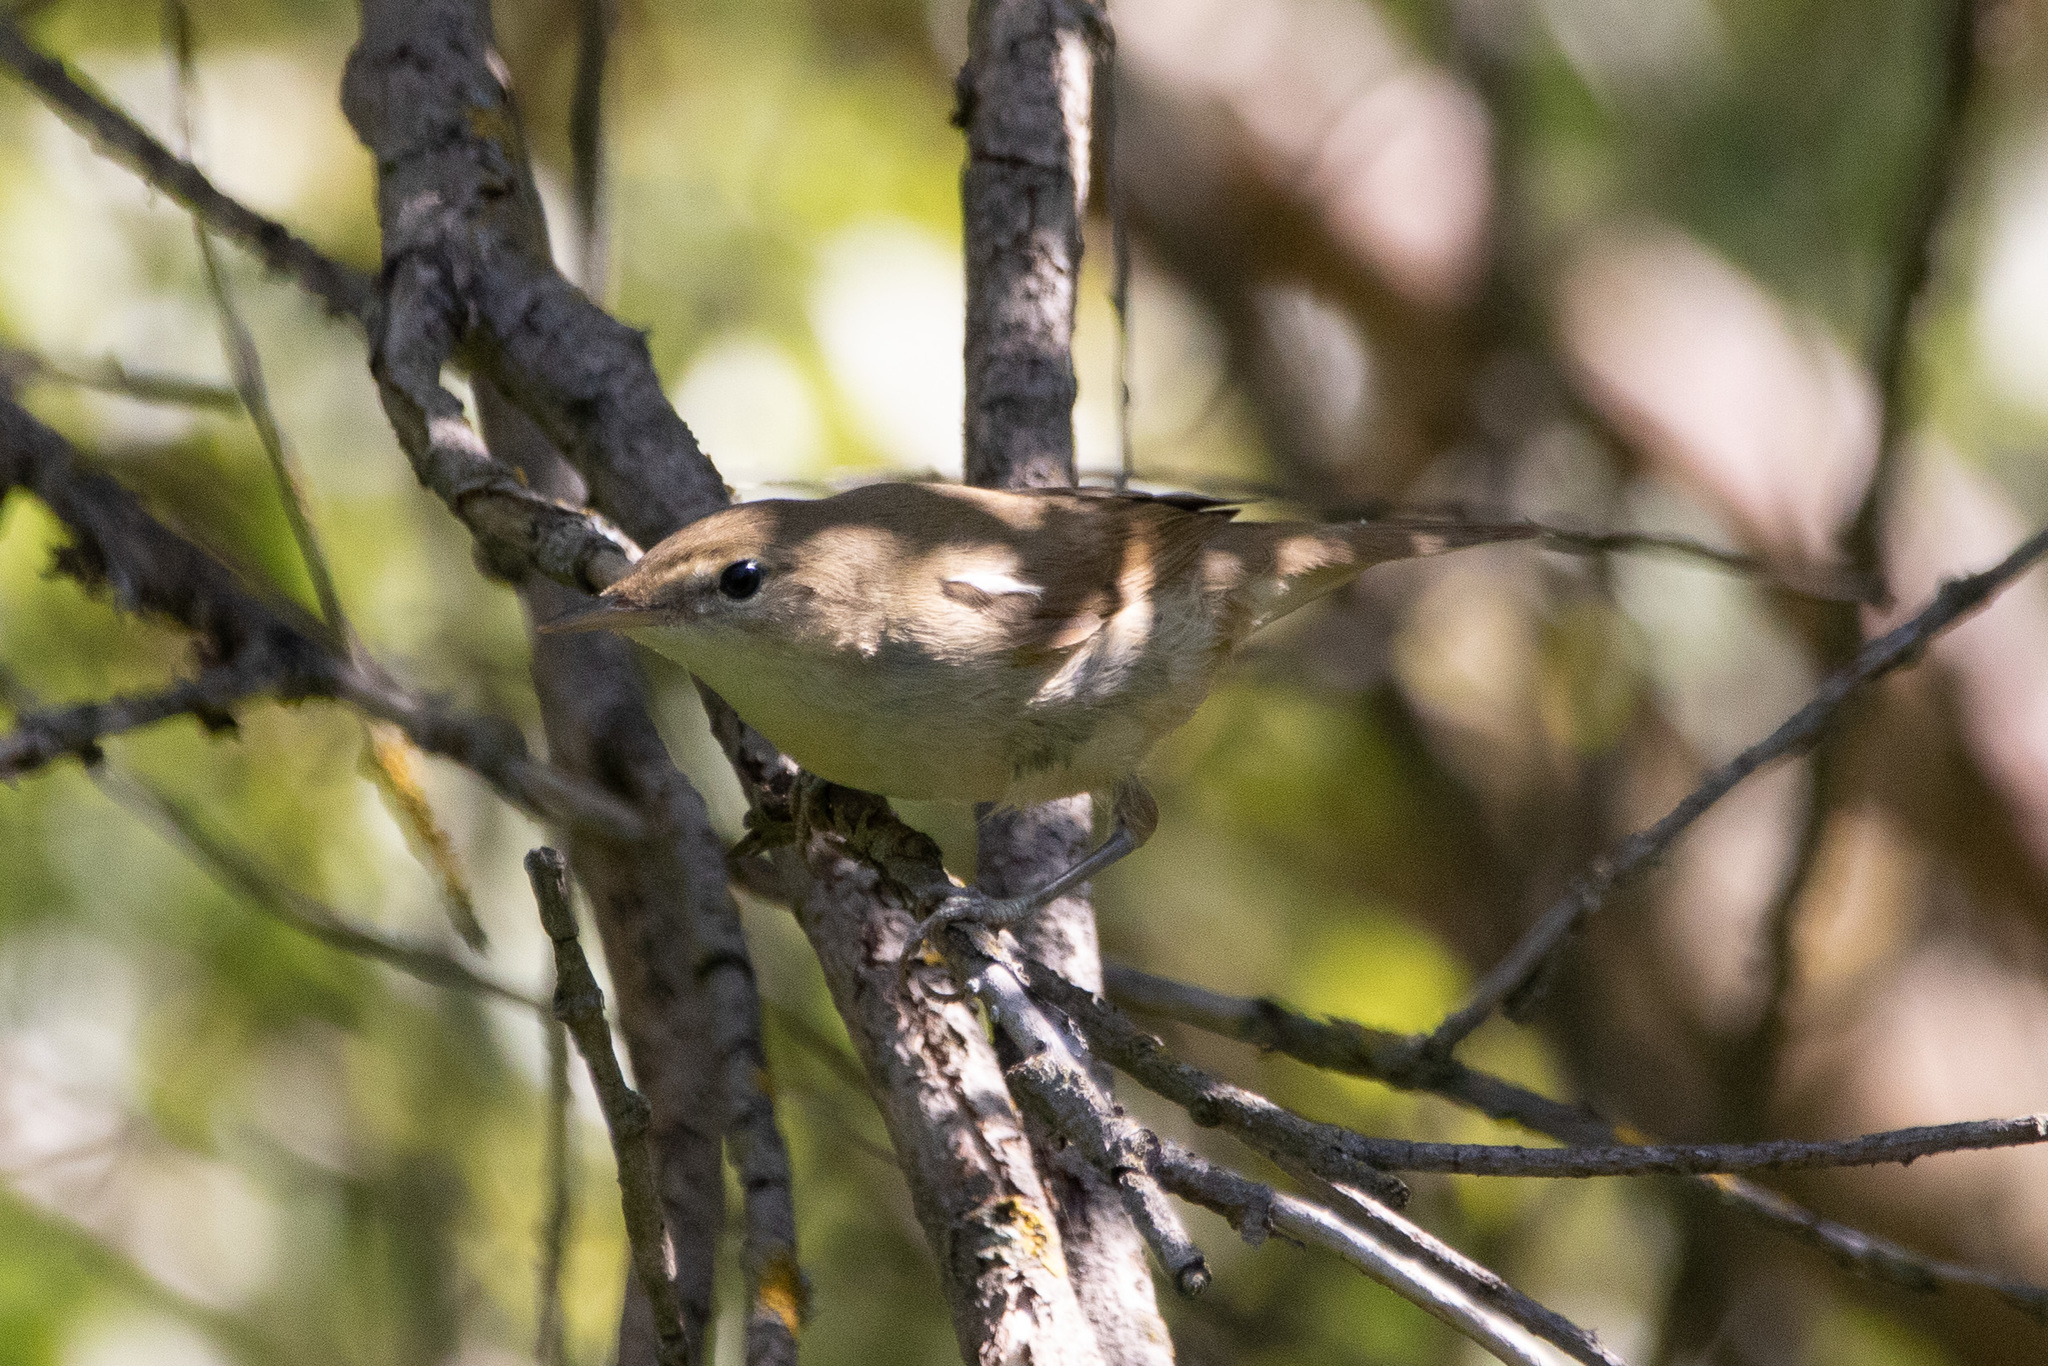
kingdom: Animalia
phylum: Chordata
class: Aves
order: Passeriformes
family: Sylviidae
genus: Sylvia
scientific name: Sylvia borin
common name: Garden warbler
